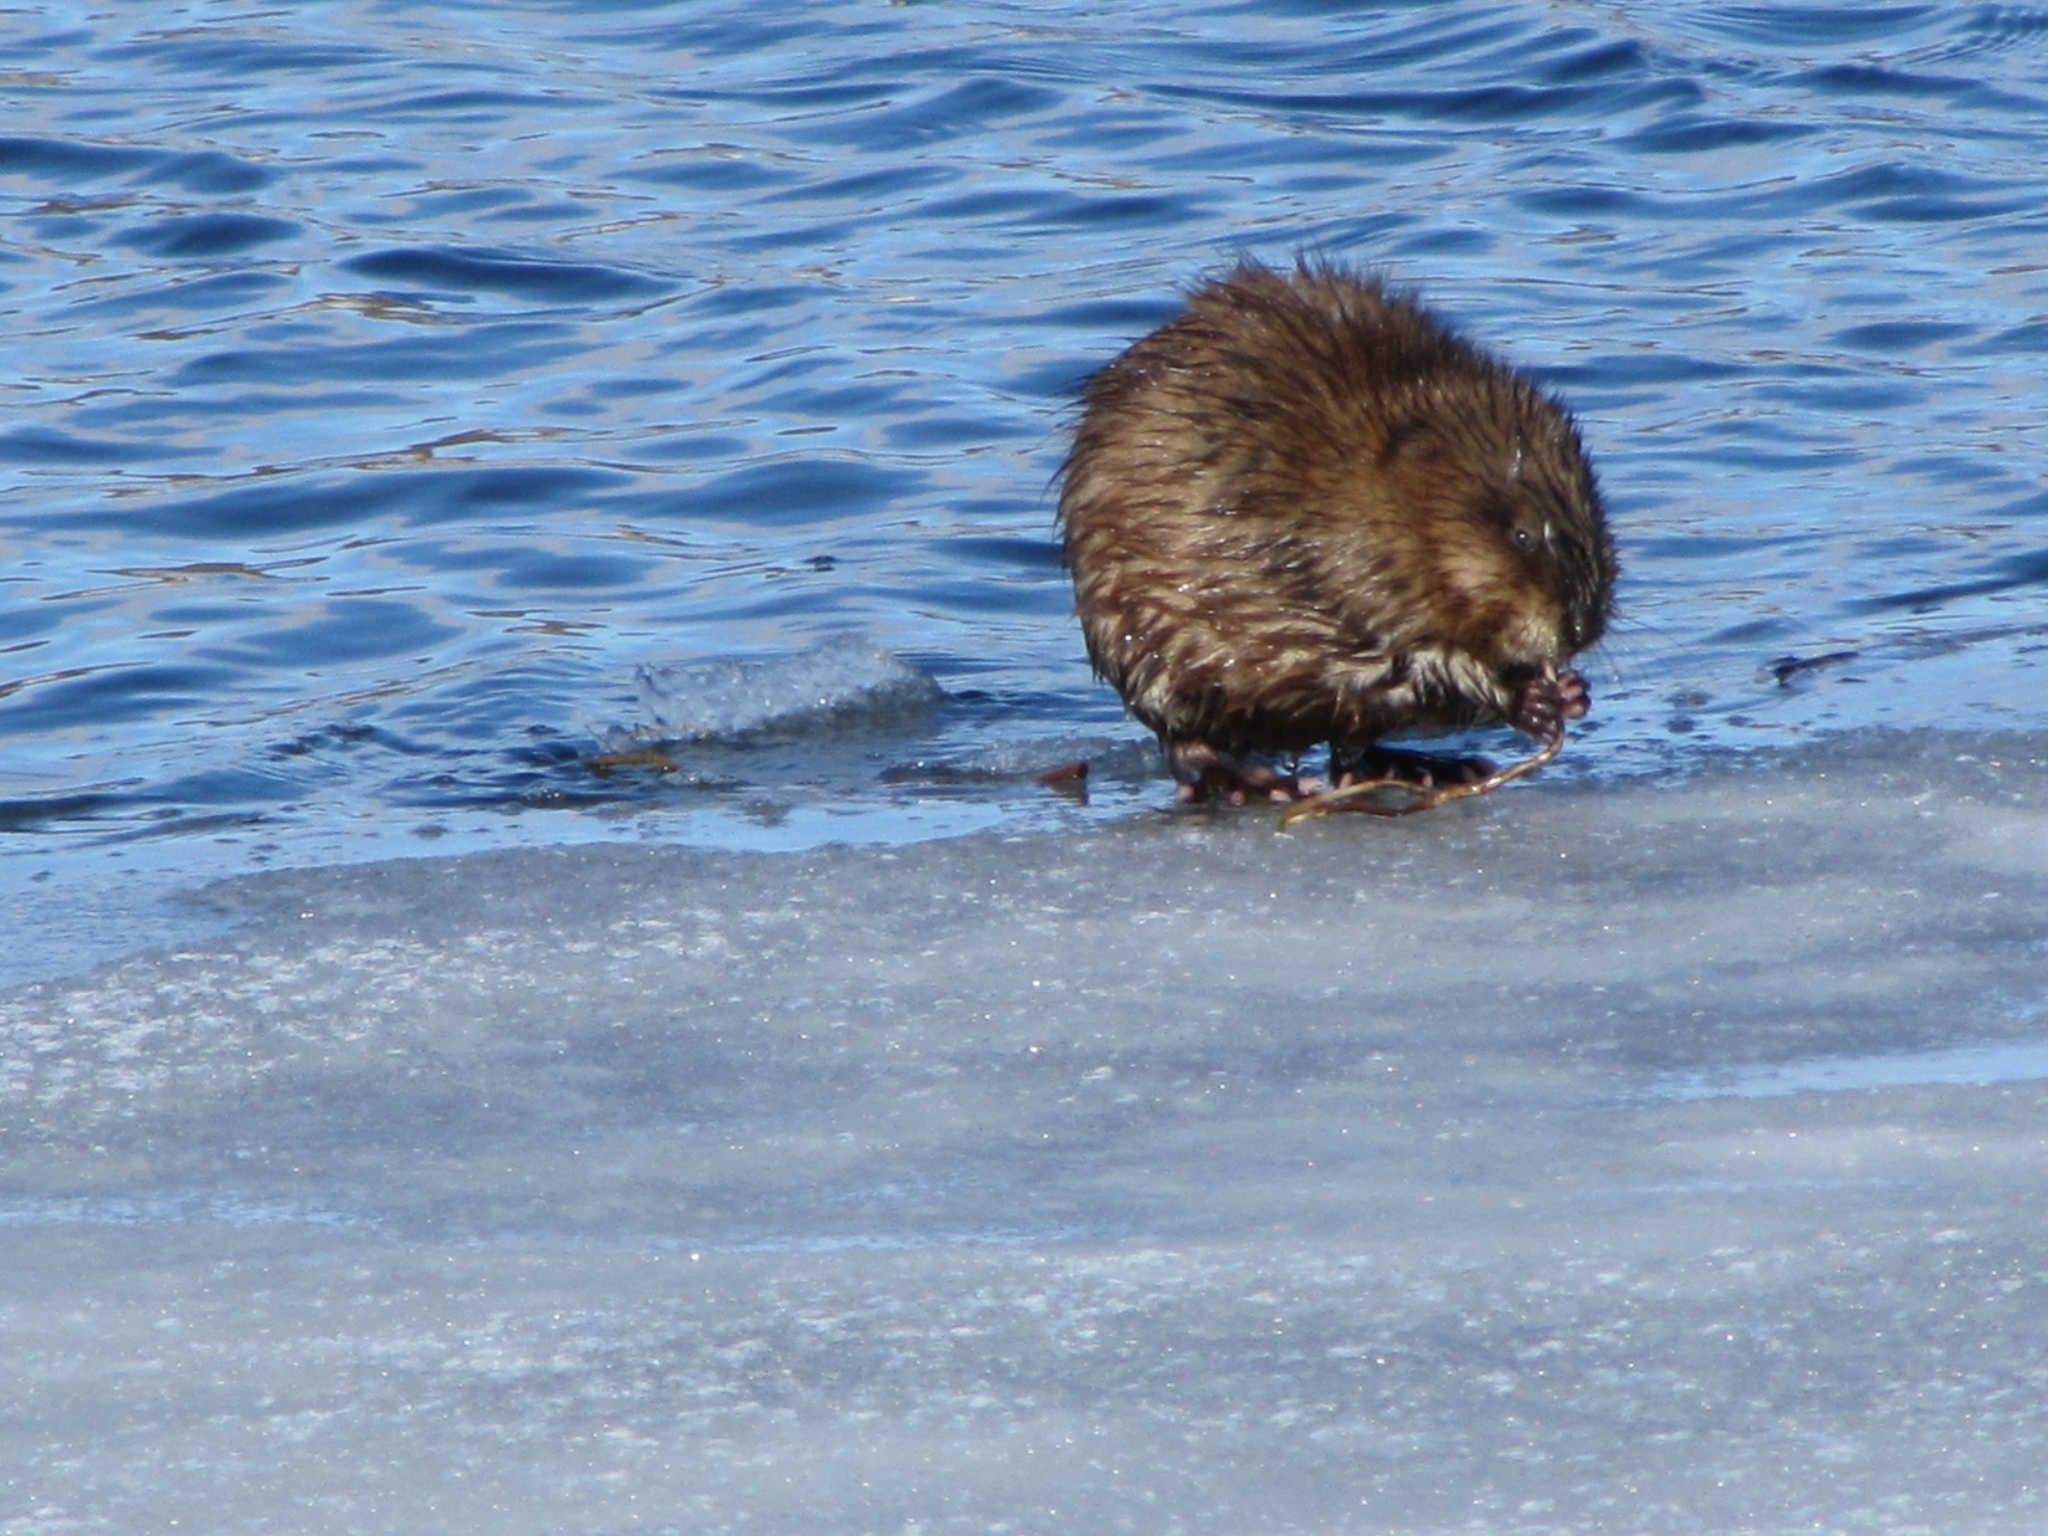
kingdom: Animalia
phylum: Chordata
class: Mammalia
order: Rodentia
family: Cricetidae
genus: Ondatra
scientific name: Ondatra zibethicus
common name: Muskrat
